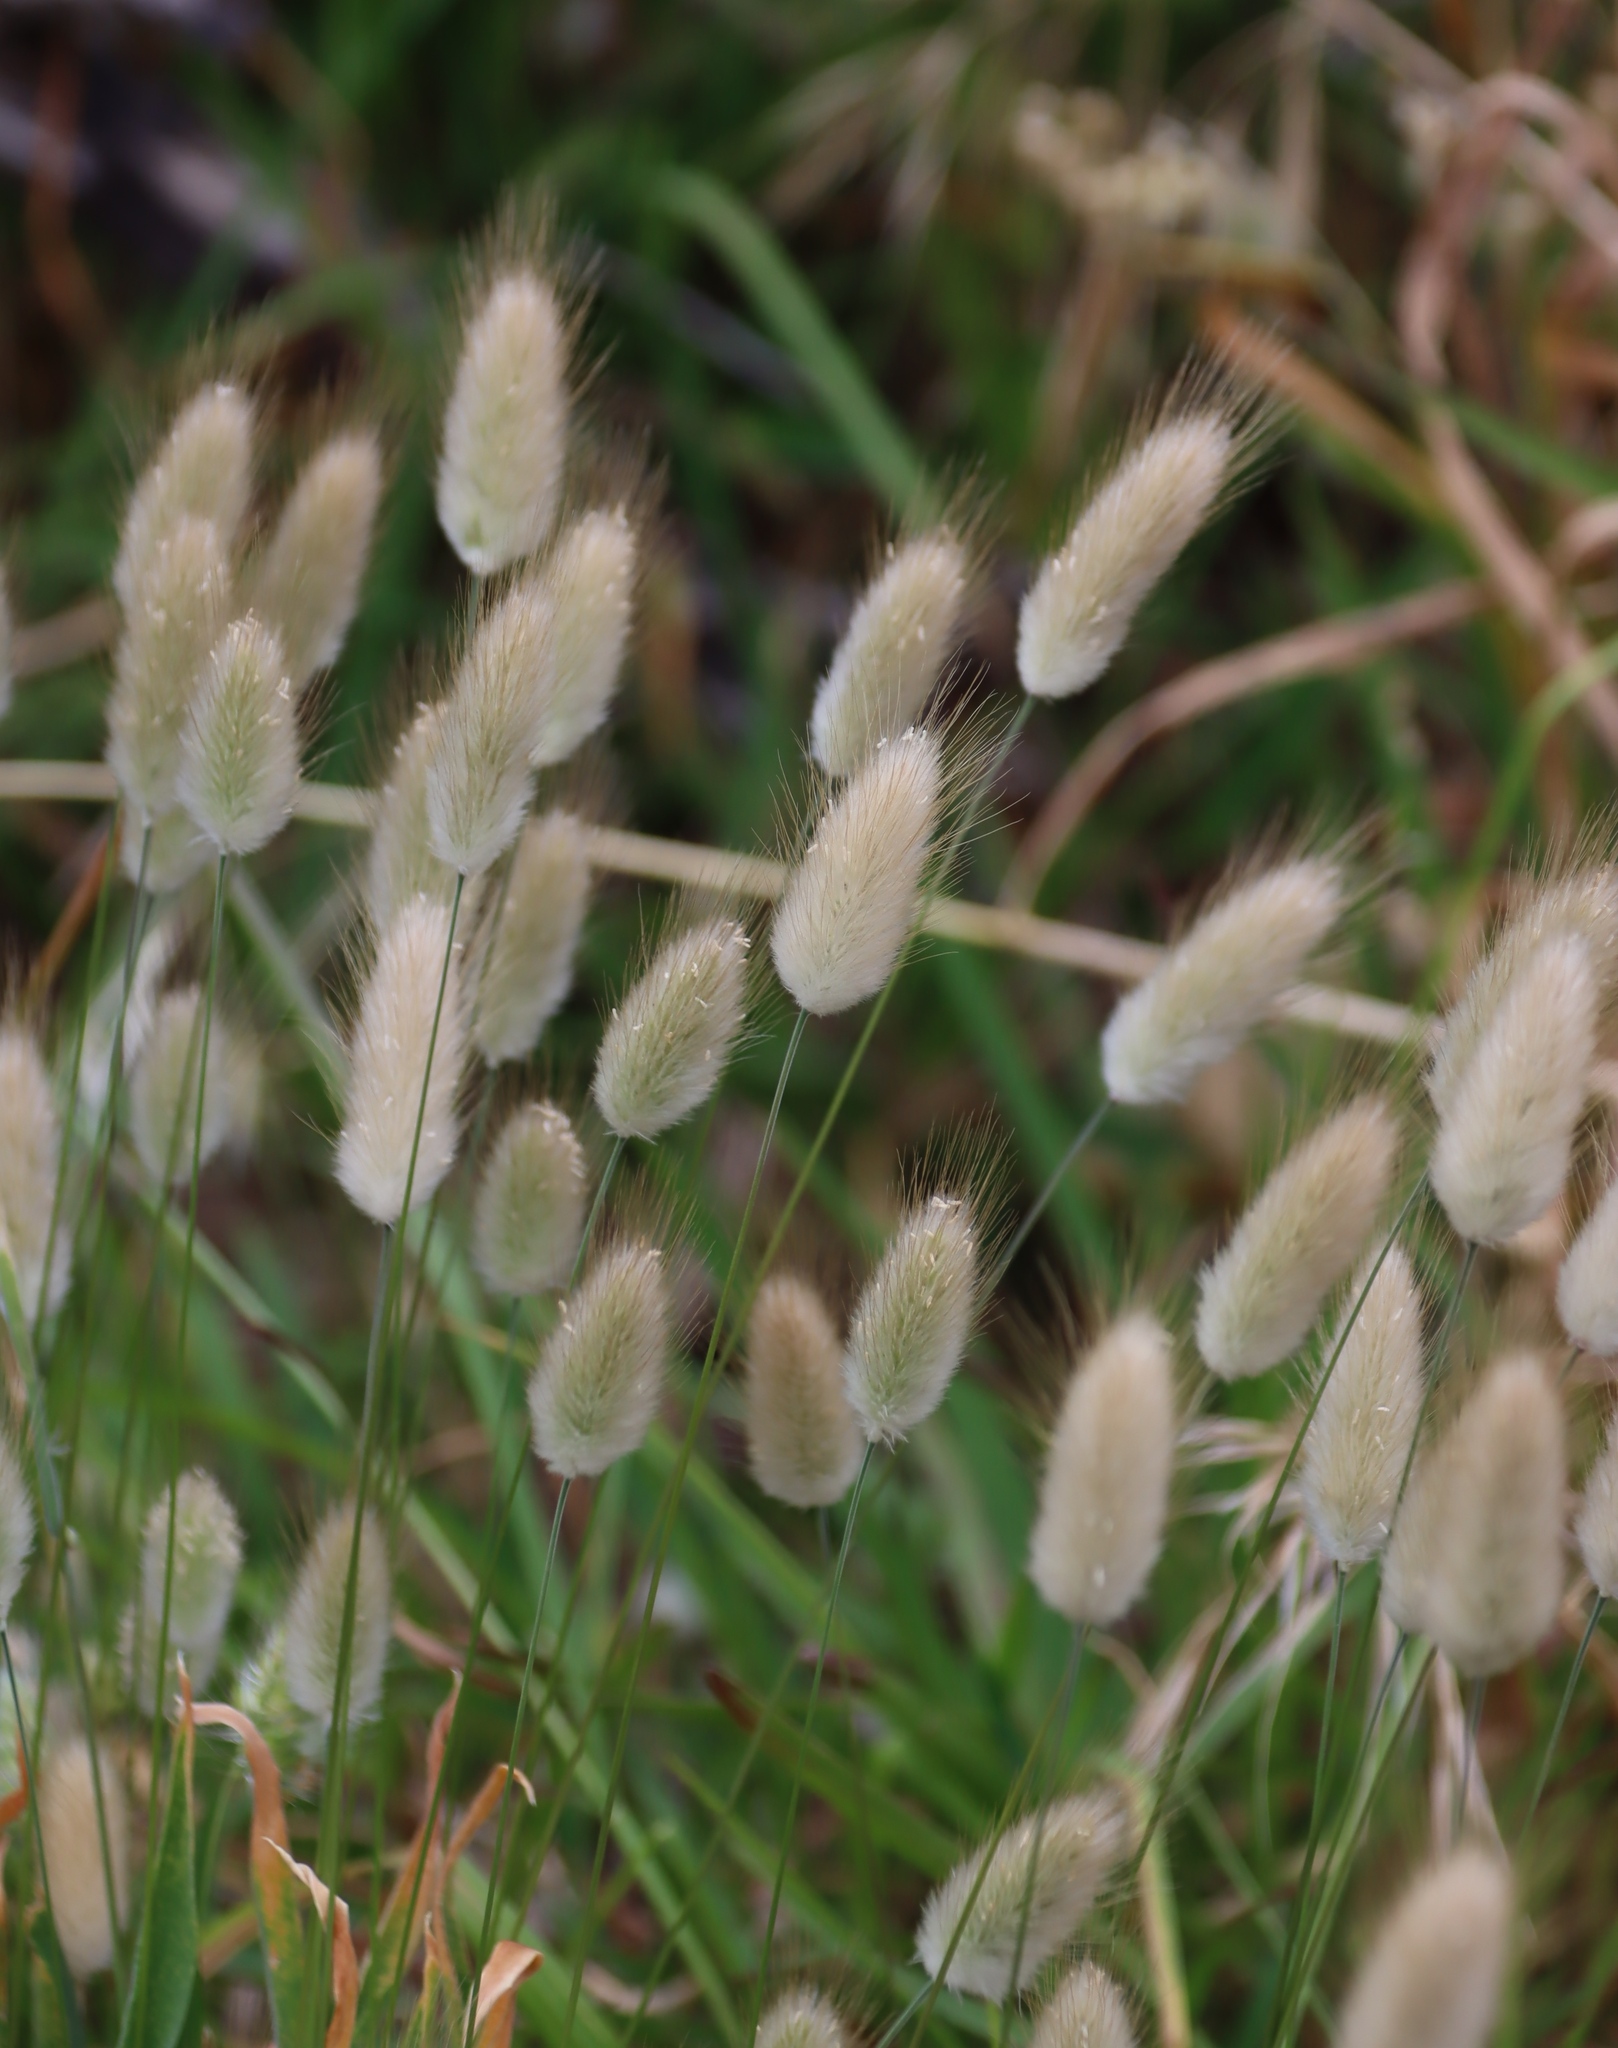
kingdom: Plantae
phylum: Tracheophyta
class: Liliopsida
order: Poales
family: Poaceae
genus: Lagurus
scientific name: Lagurus ovatus
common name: Hare's-tail
